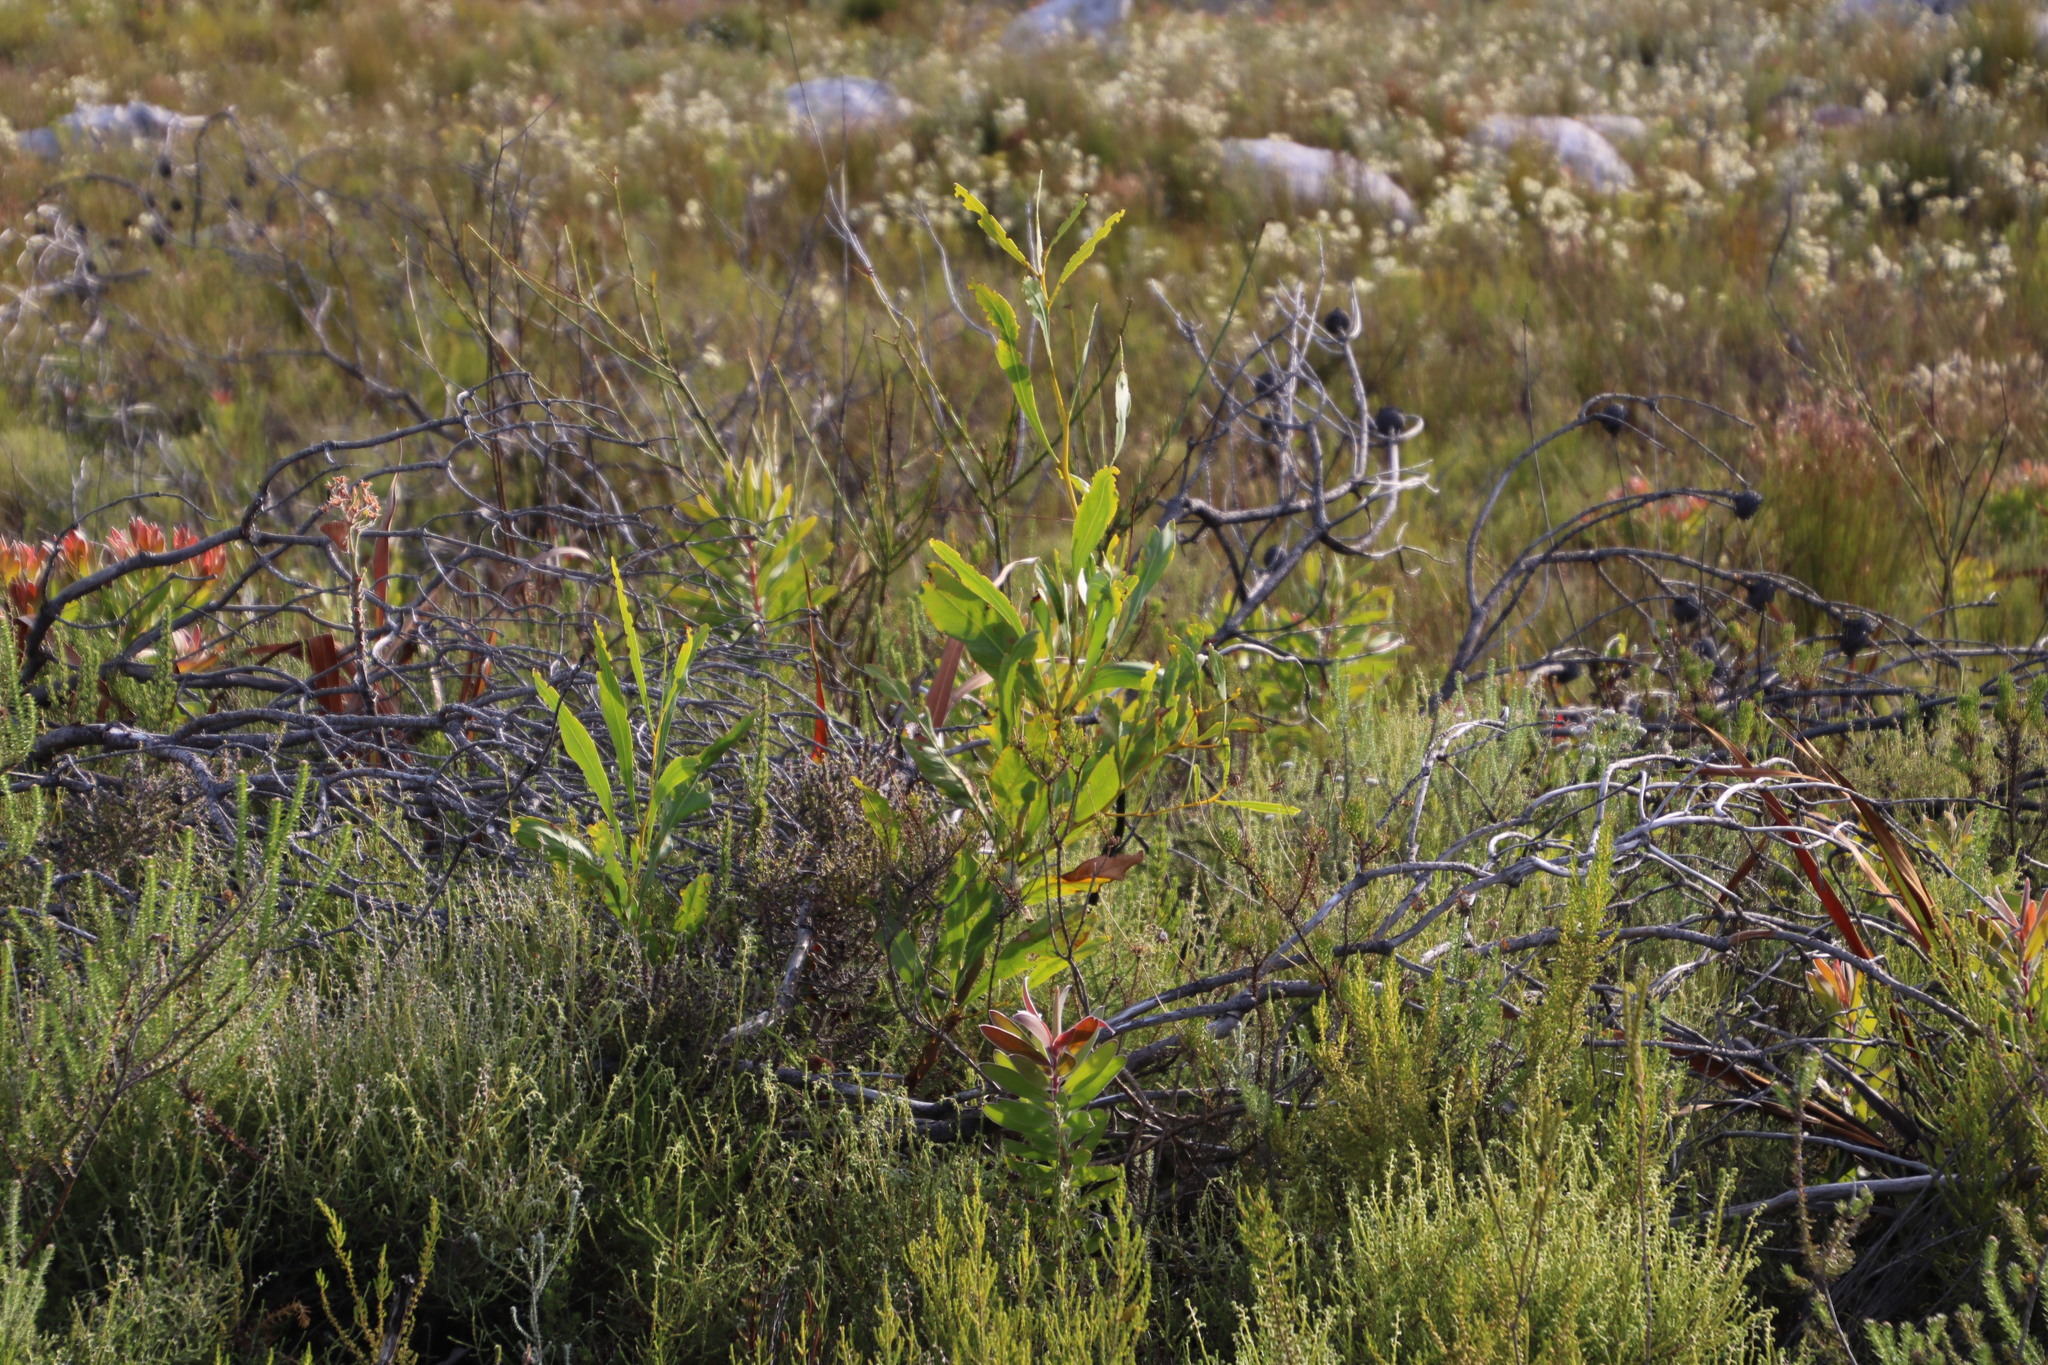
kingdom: Plantae
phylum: Tracheophyta
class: Magnoliopsida
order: Fabales
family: Fabaceae
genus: Acacia
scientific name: Acacia saligna
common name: Orange wattle
